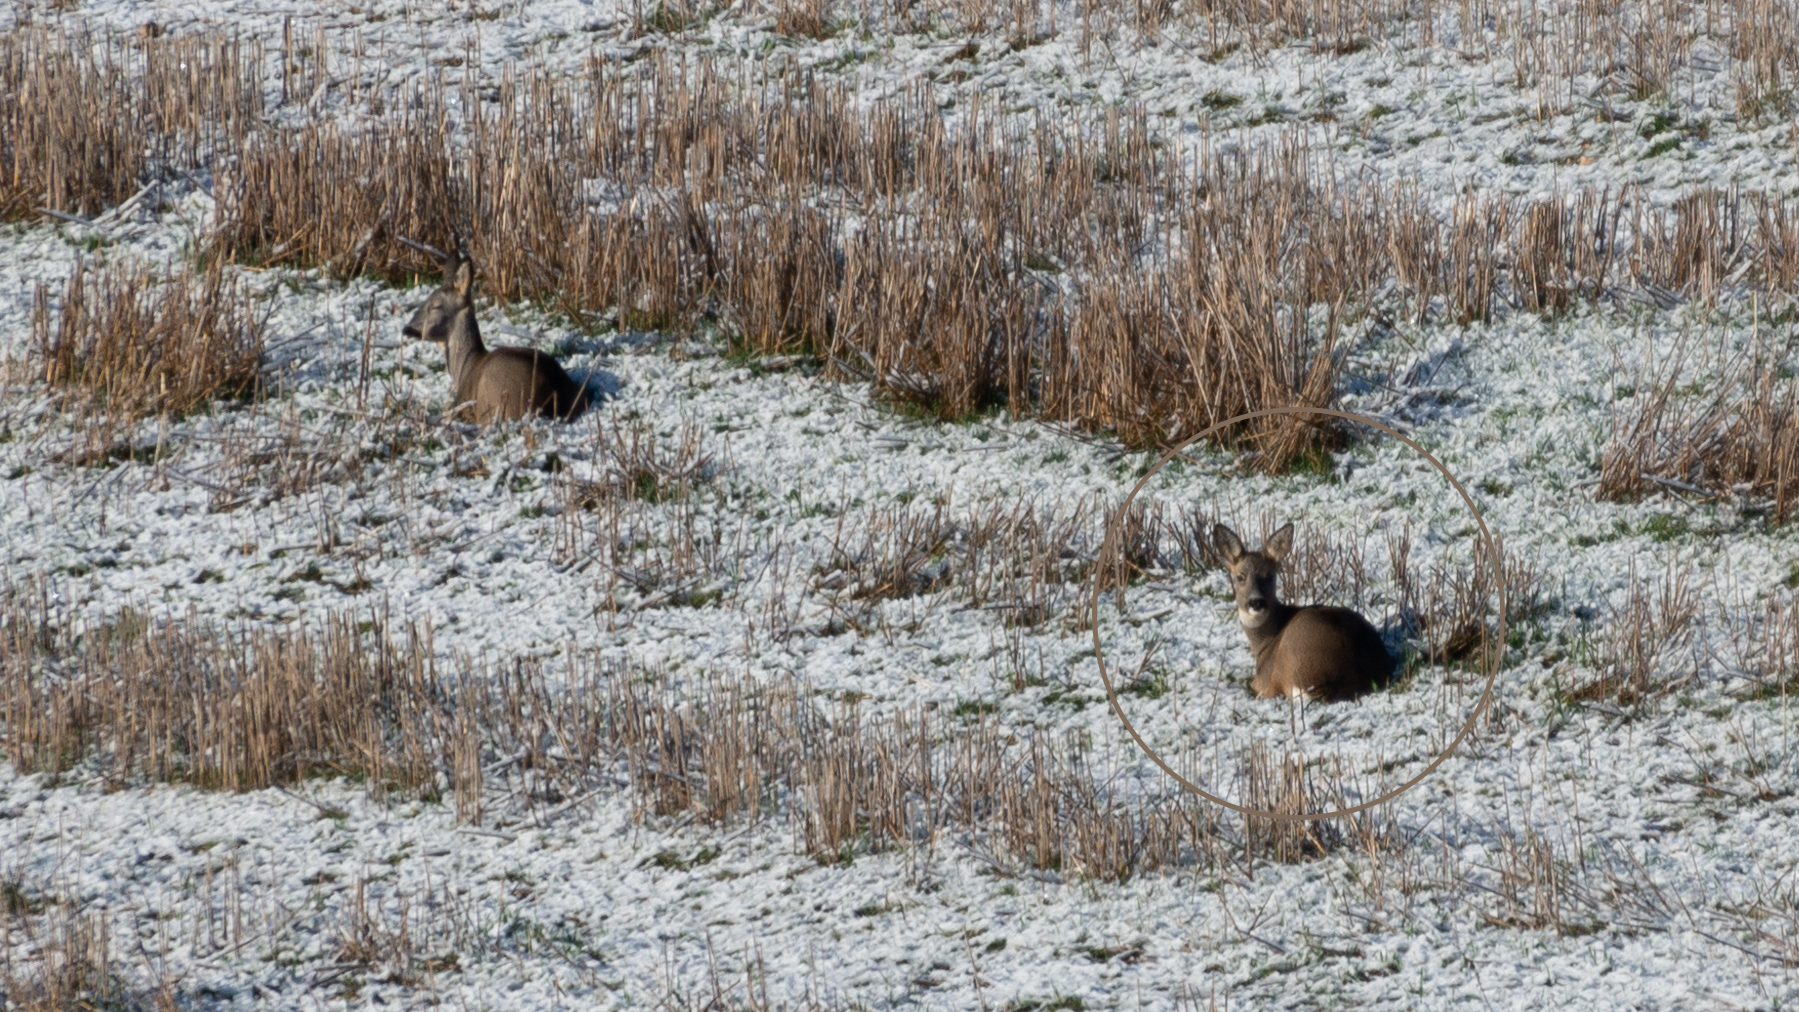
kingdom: Animalia
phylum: Chordata
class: Mammalia
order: Artiodactyla
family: Cervidae
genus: Capreolus
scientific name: Capreolus capreolus
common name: Western roe deer
